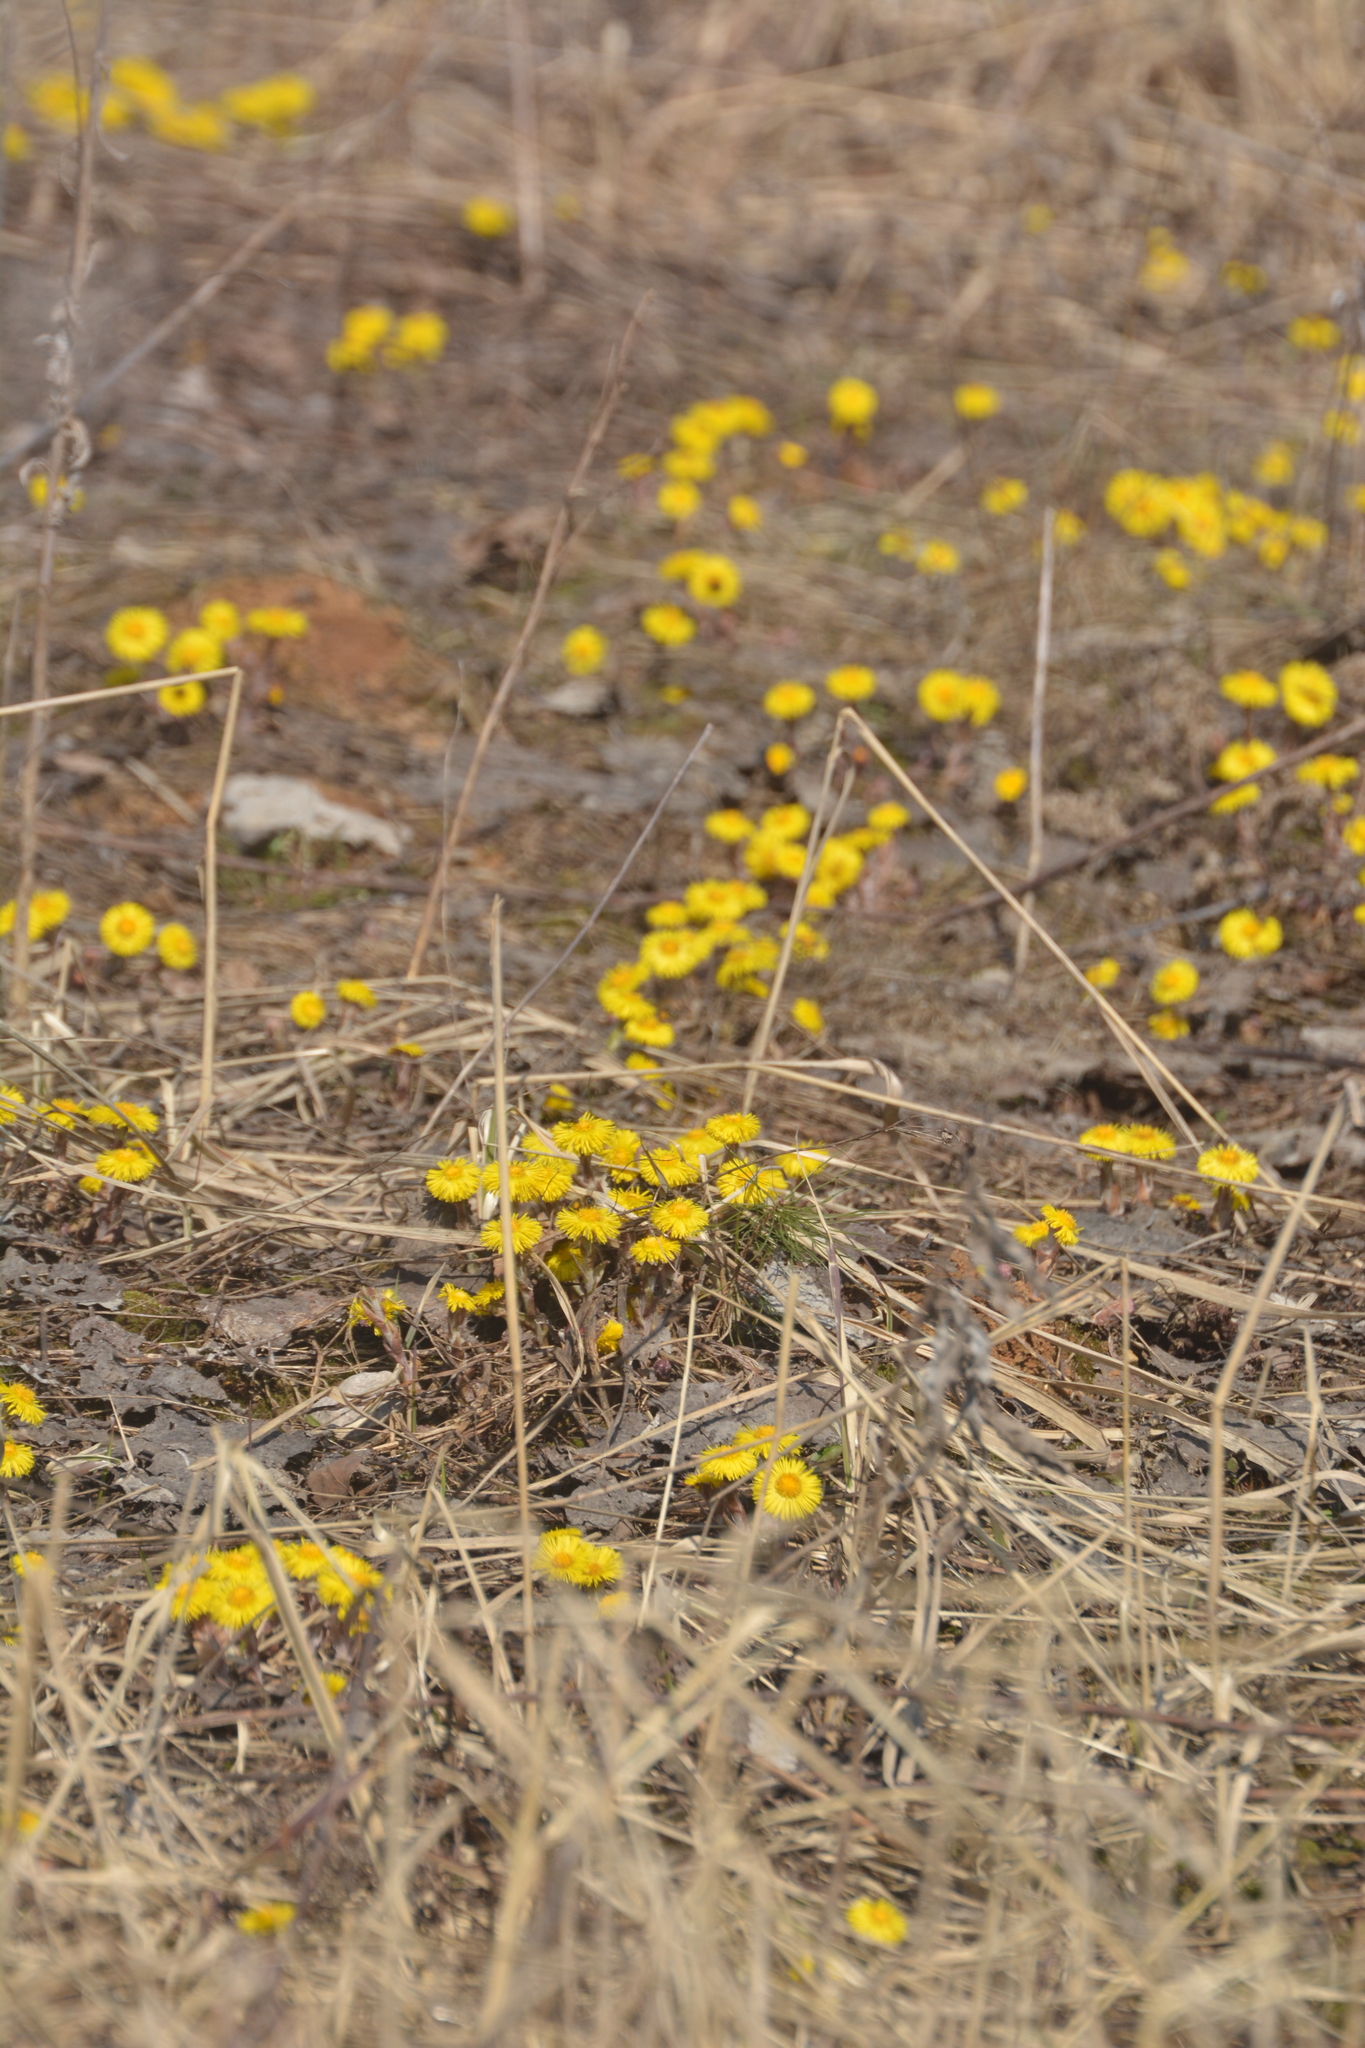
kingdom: Plantae
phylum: Tracheophyta
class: Magnoliopsida
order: Asterales
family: Asteraceae
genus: Tussilago
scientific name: Tussilago farfara
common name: Coltsfoot
